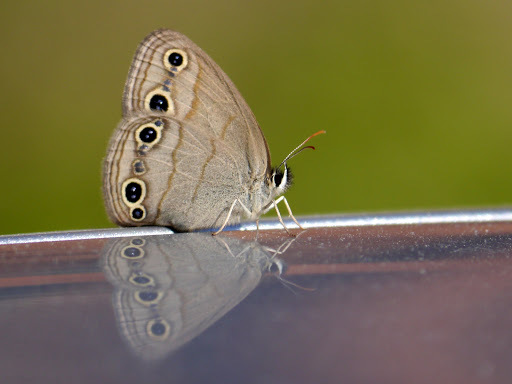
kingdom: Animalia
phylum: Arthropoda
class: Insecta
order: Lepidoptera
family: Nymphalidae
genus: Euptychia
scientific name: Euptychia cymela
